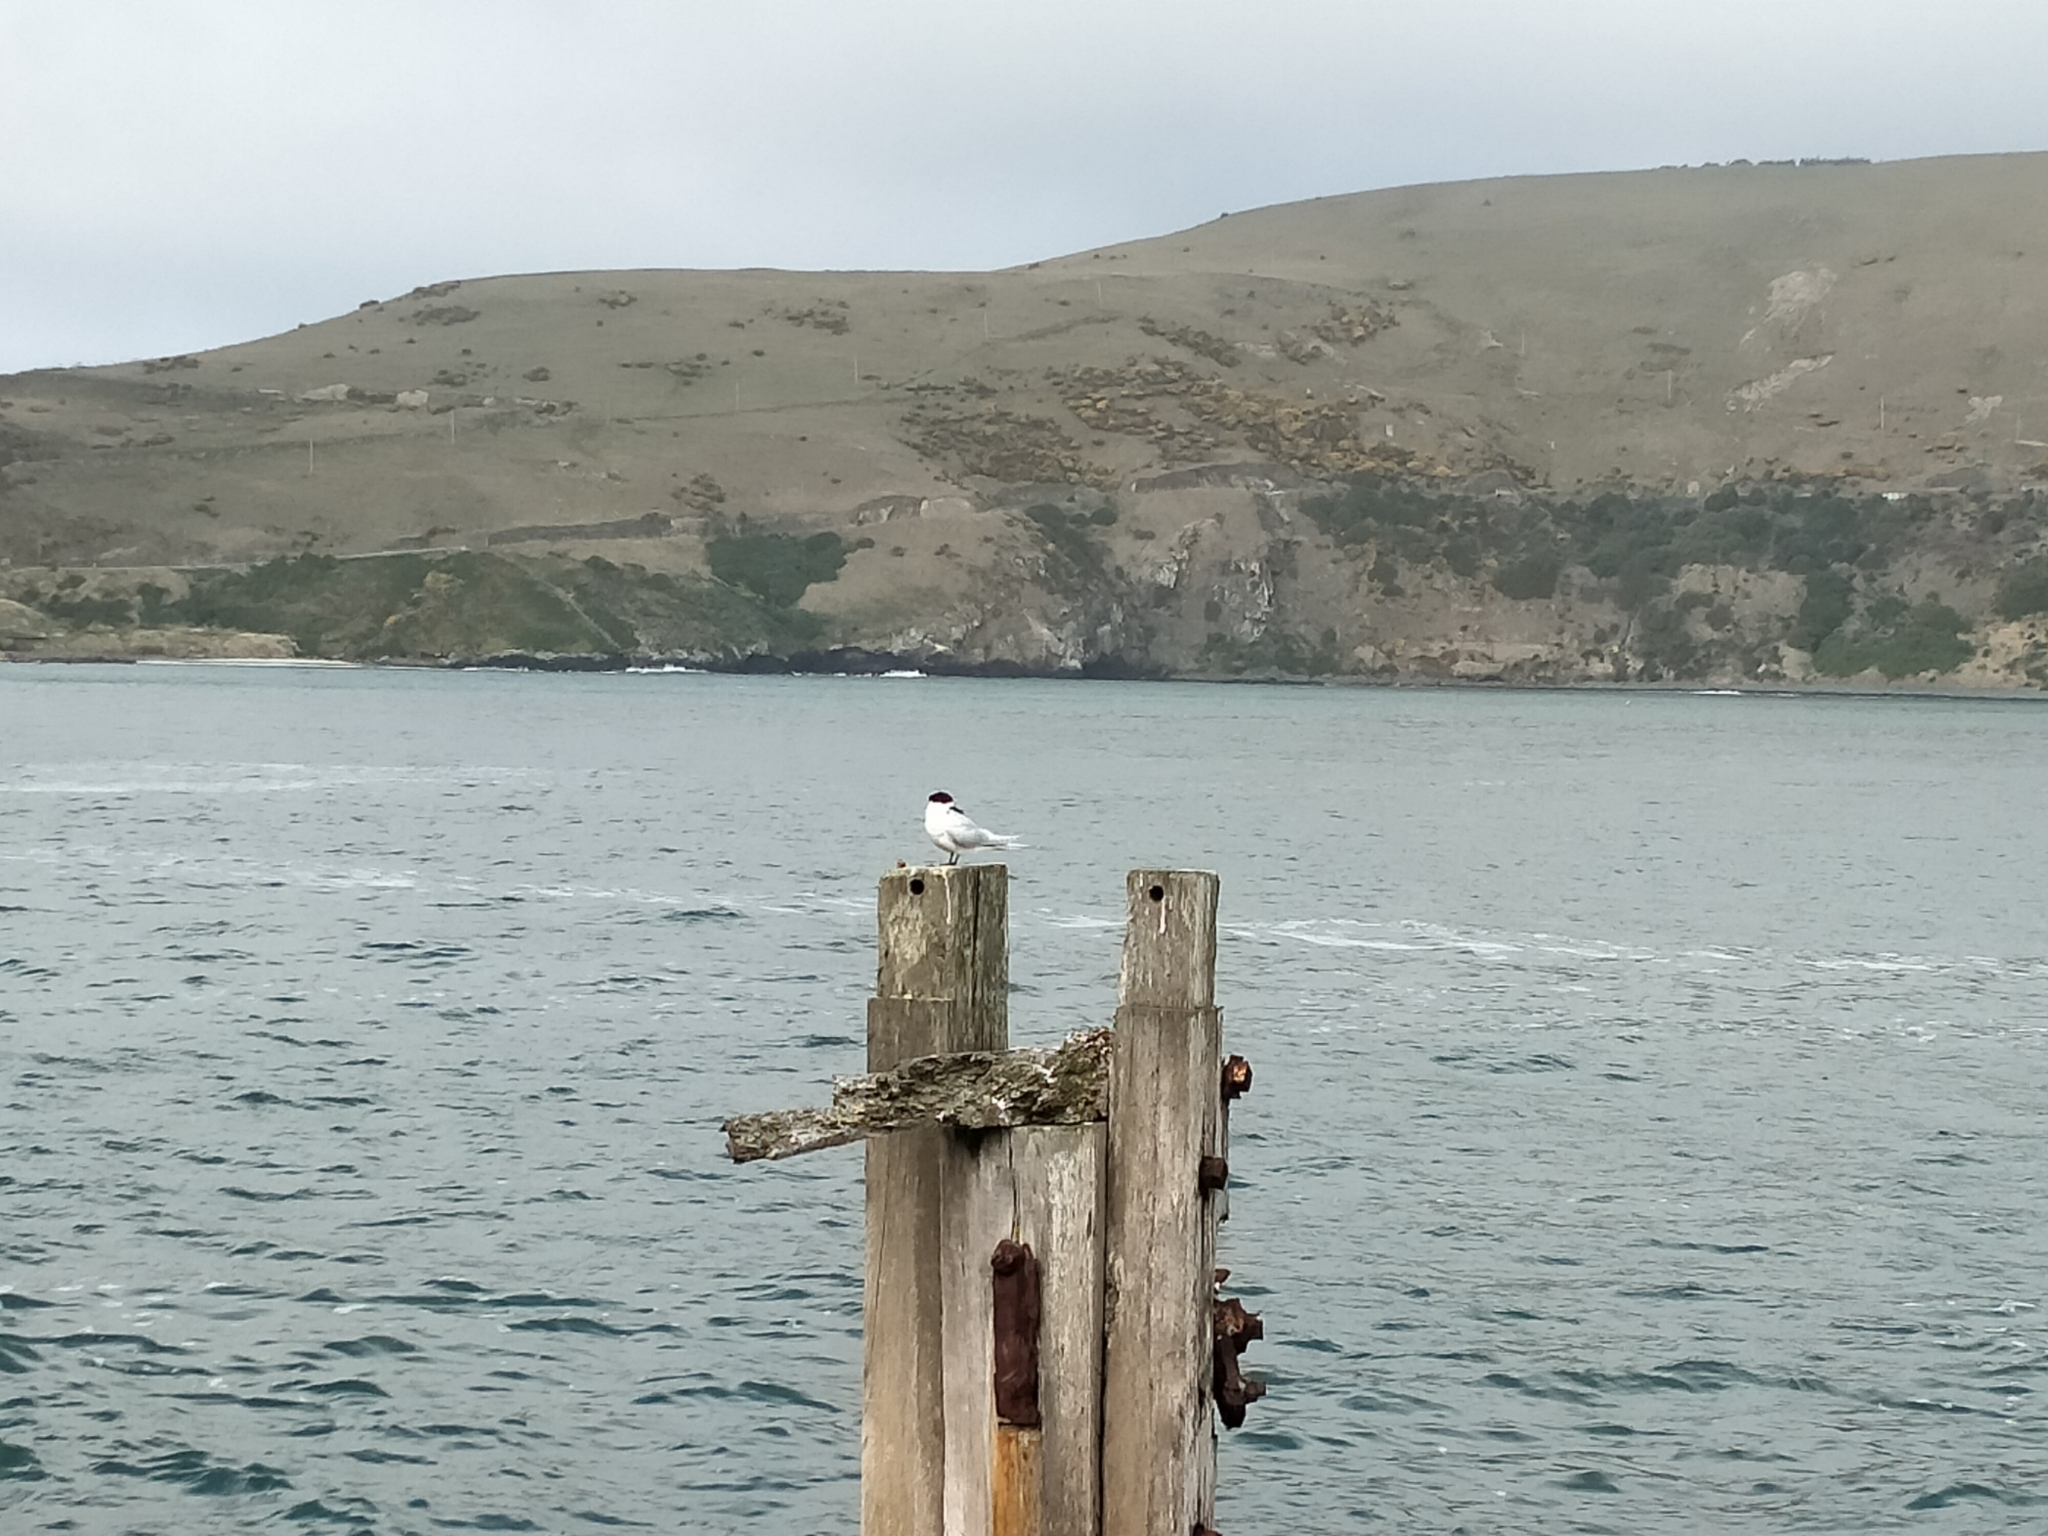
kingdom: Animalia
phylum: Chordata
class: Aves
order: Charadriiformes
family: Laridae
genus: Sterna
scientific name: Sterna striata
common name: White-fronted tern
